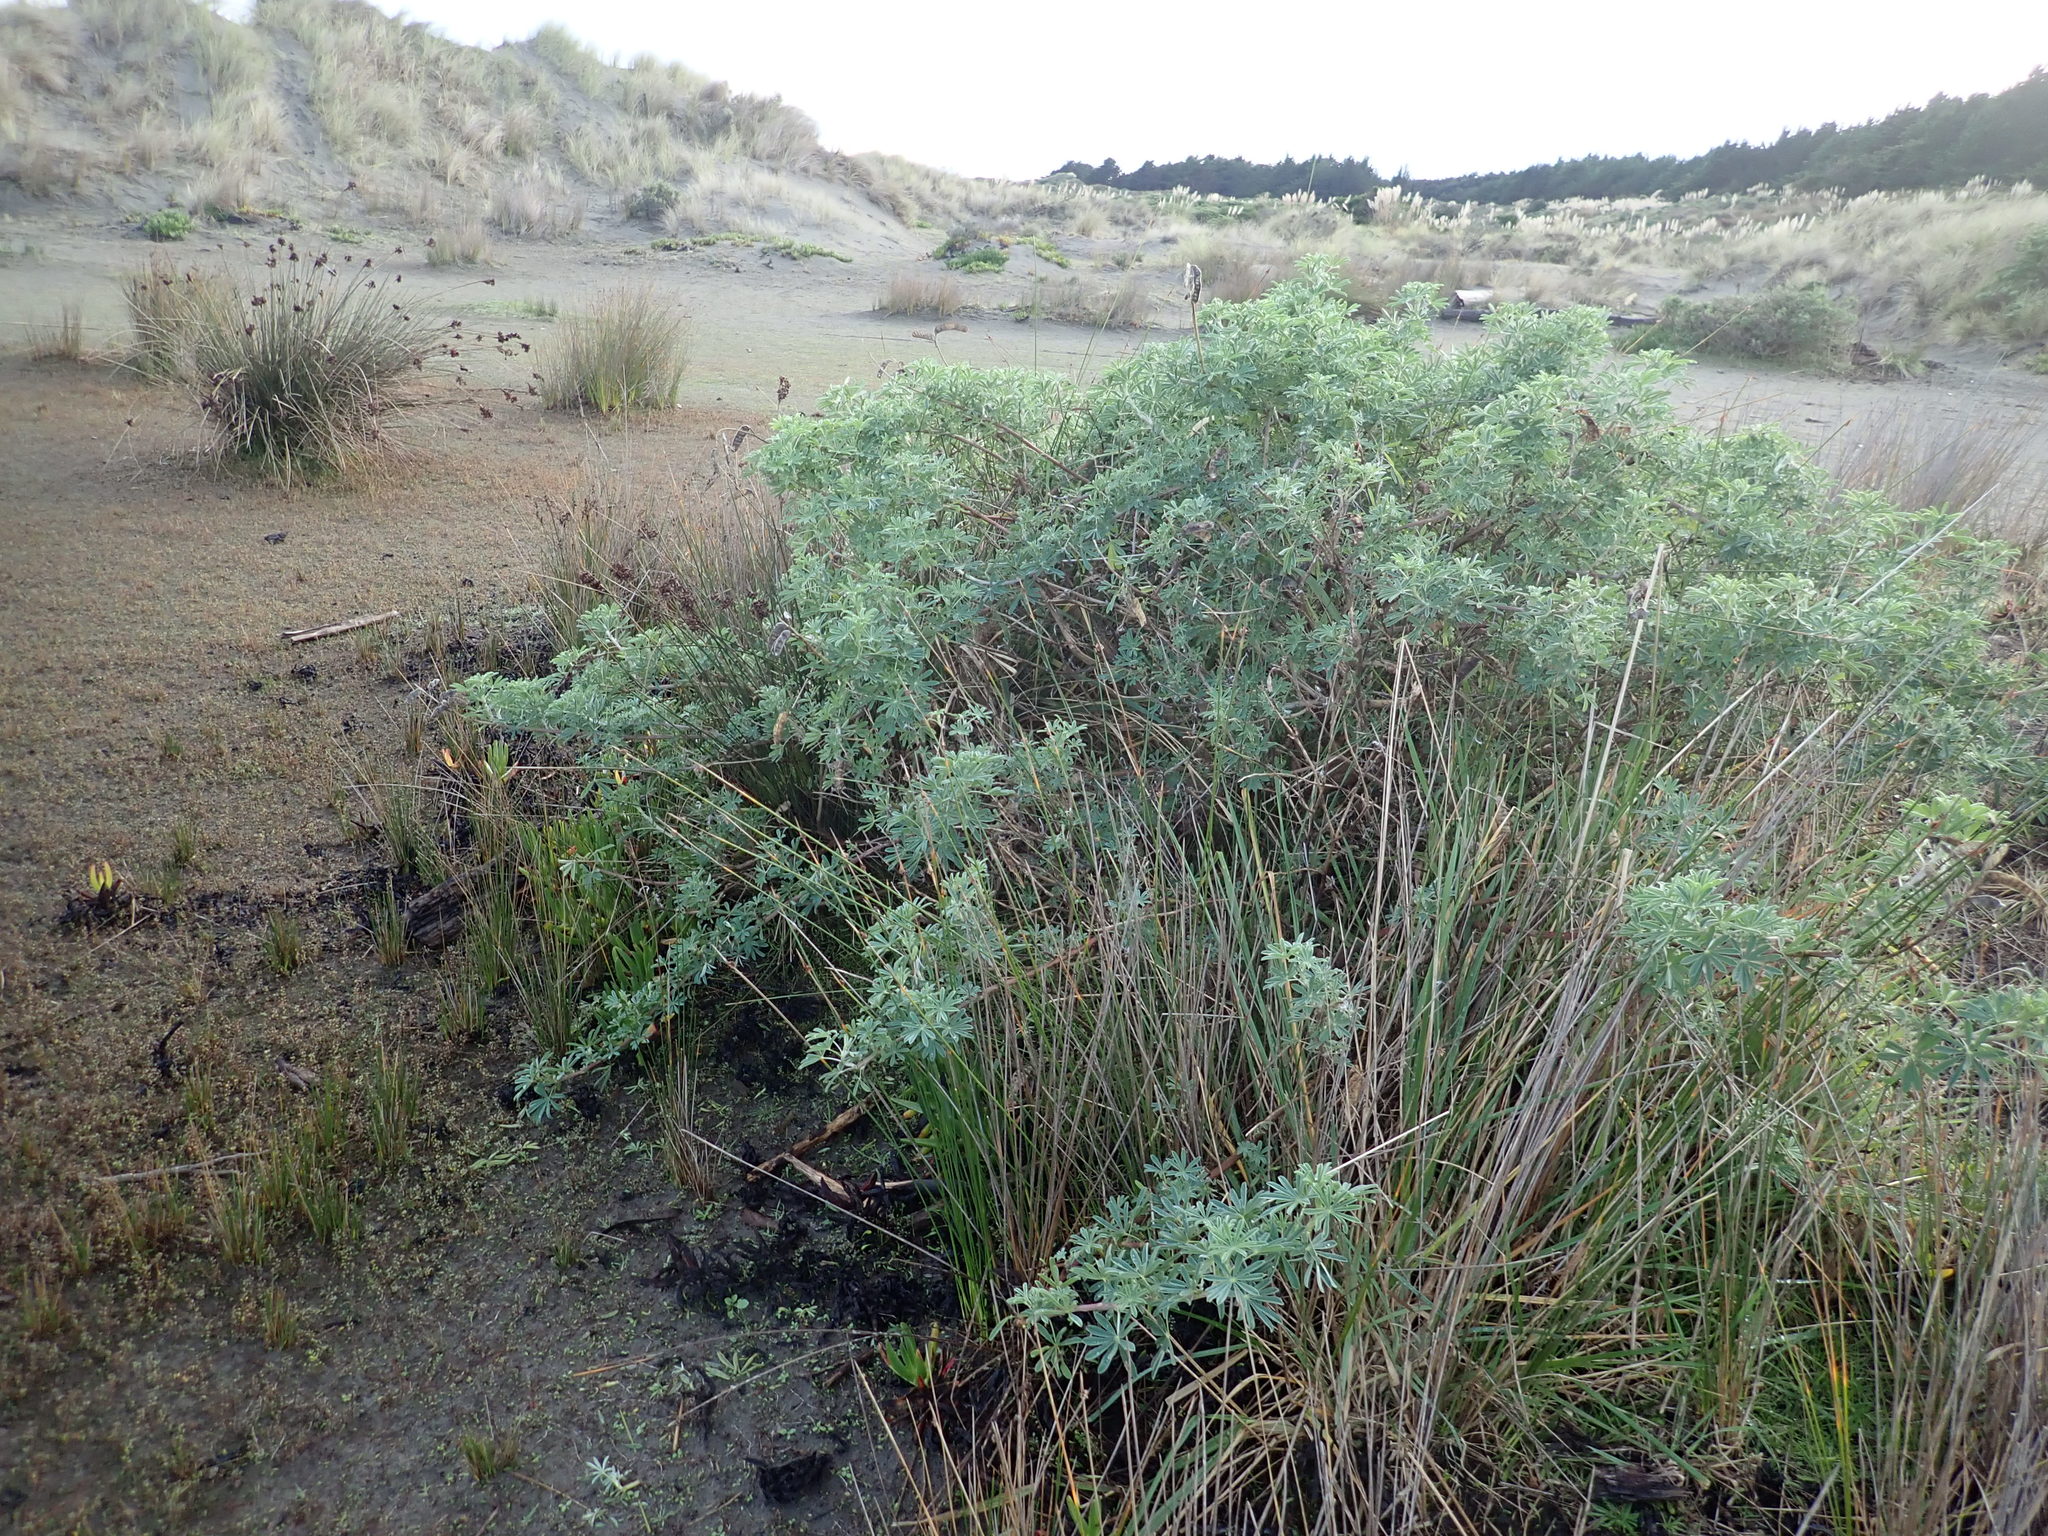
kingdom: Plantae
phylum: Tracheophyta
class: Magnoliopsida
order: Fabales
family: Fabaceae
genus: Lupinus
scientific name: Lupinus arboreus
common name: Yellow bush lupine
